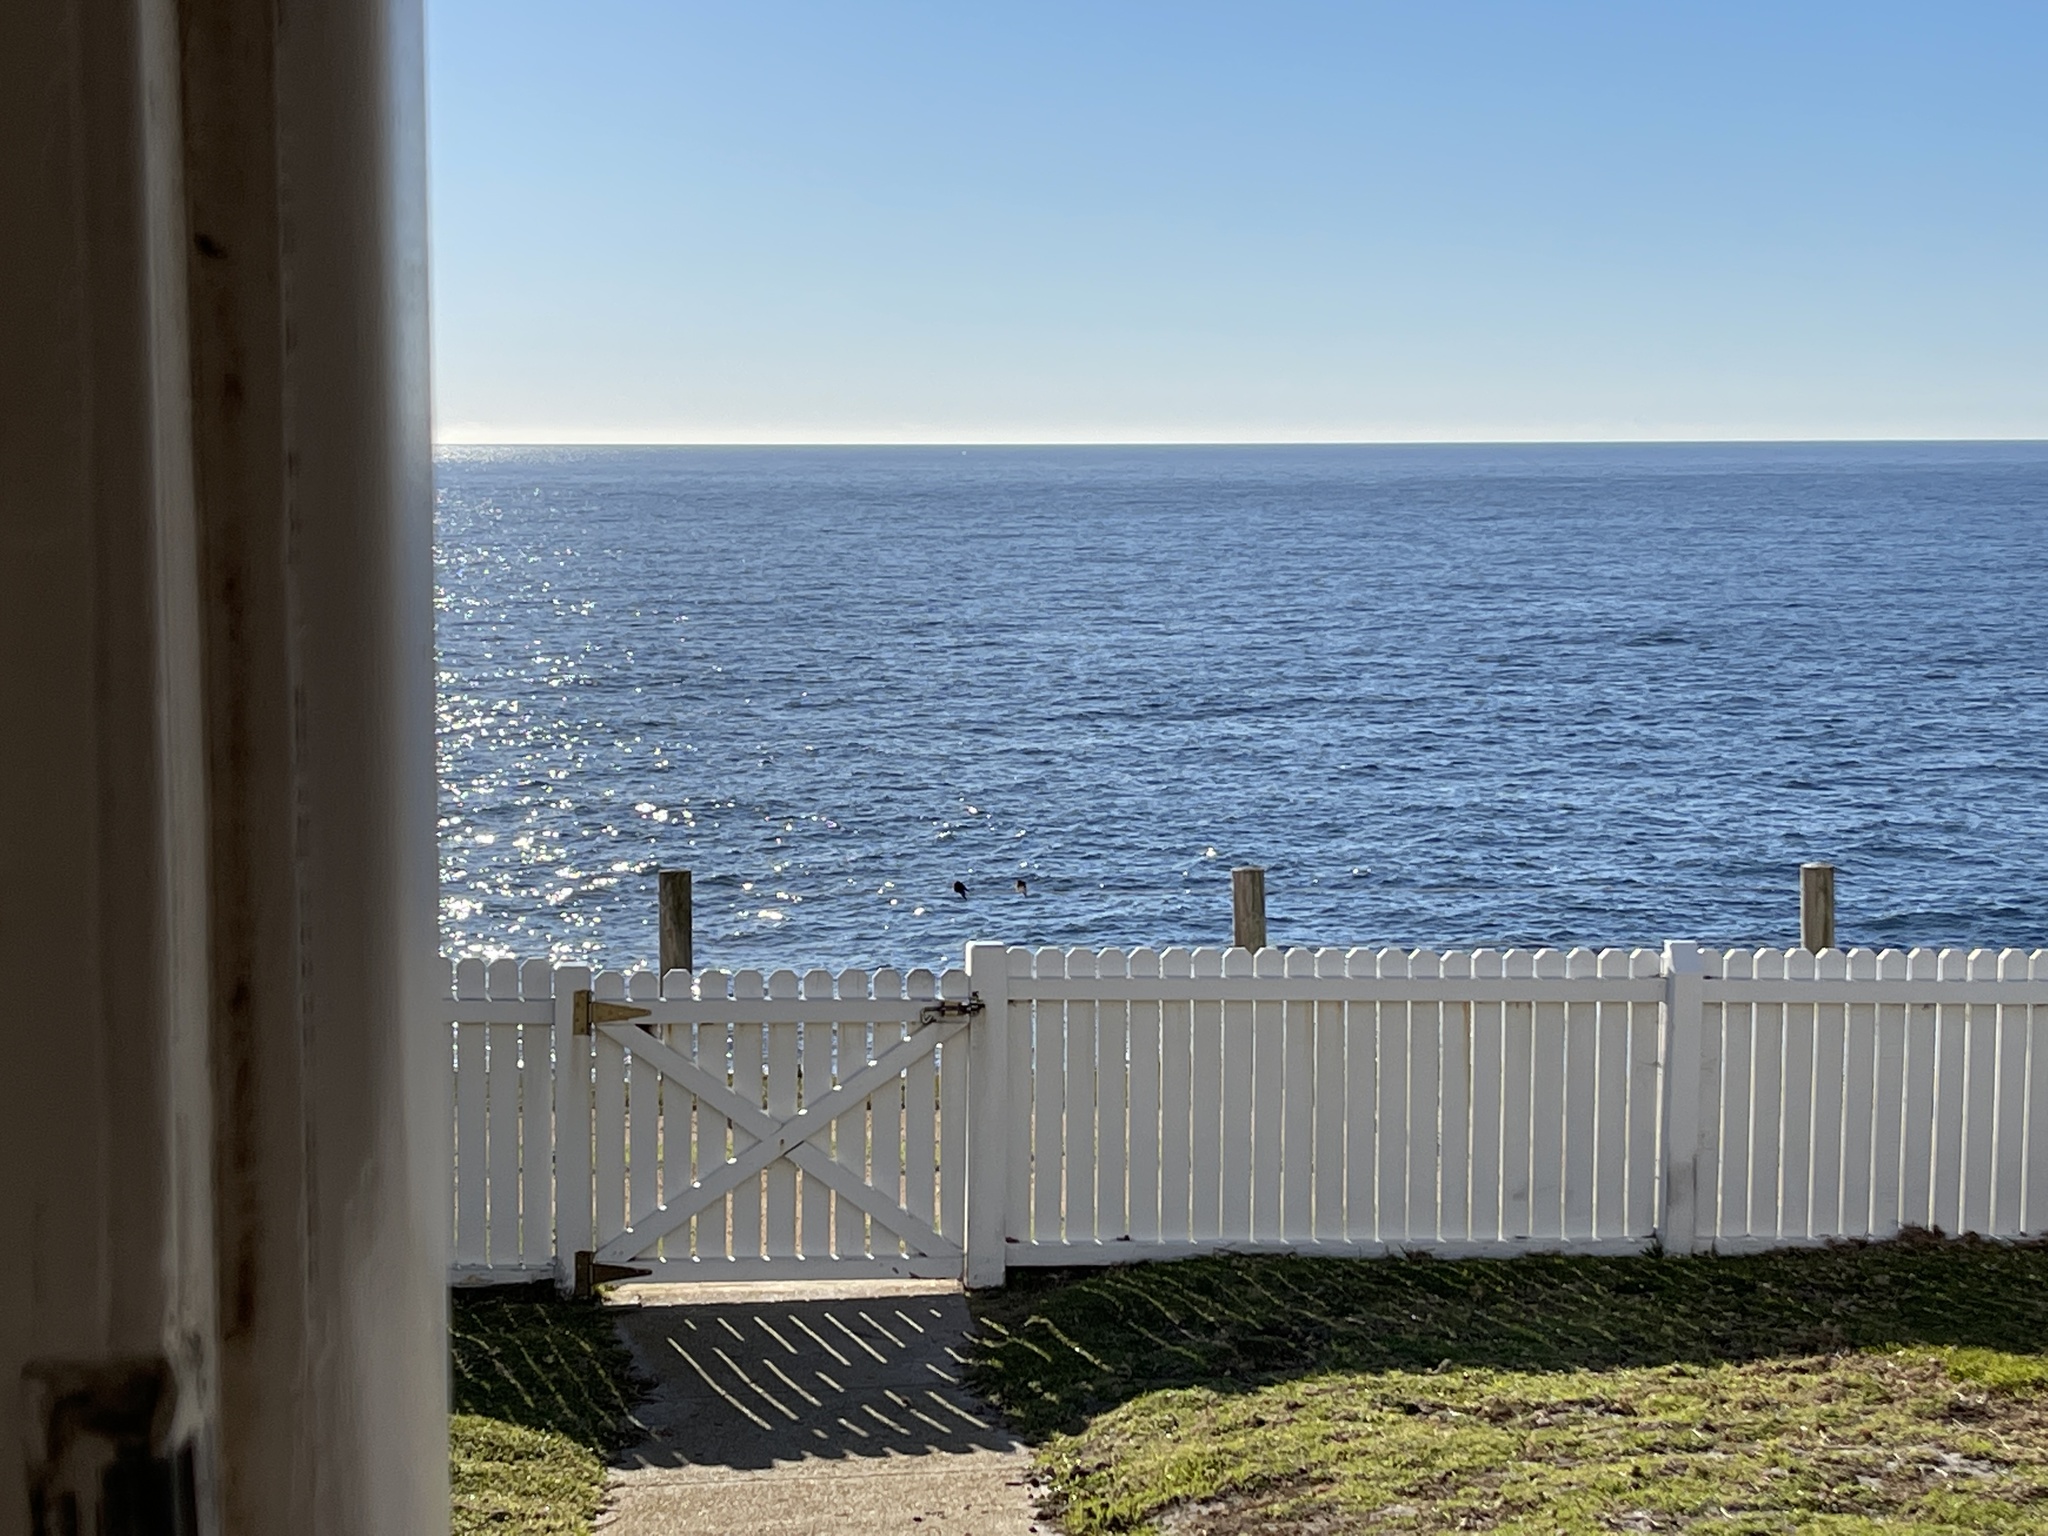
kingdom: Animalia
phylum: Chordata
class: Aves
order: Passeriformes
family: Hirundinidae
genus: Hirundo
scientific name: Hirundo neoxena
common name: Welcome swallow
